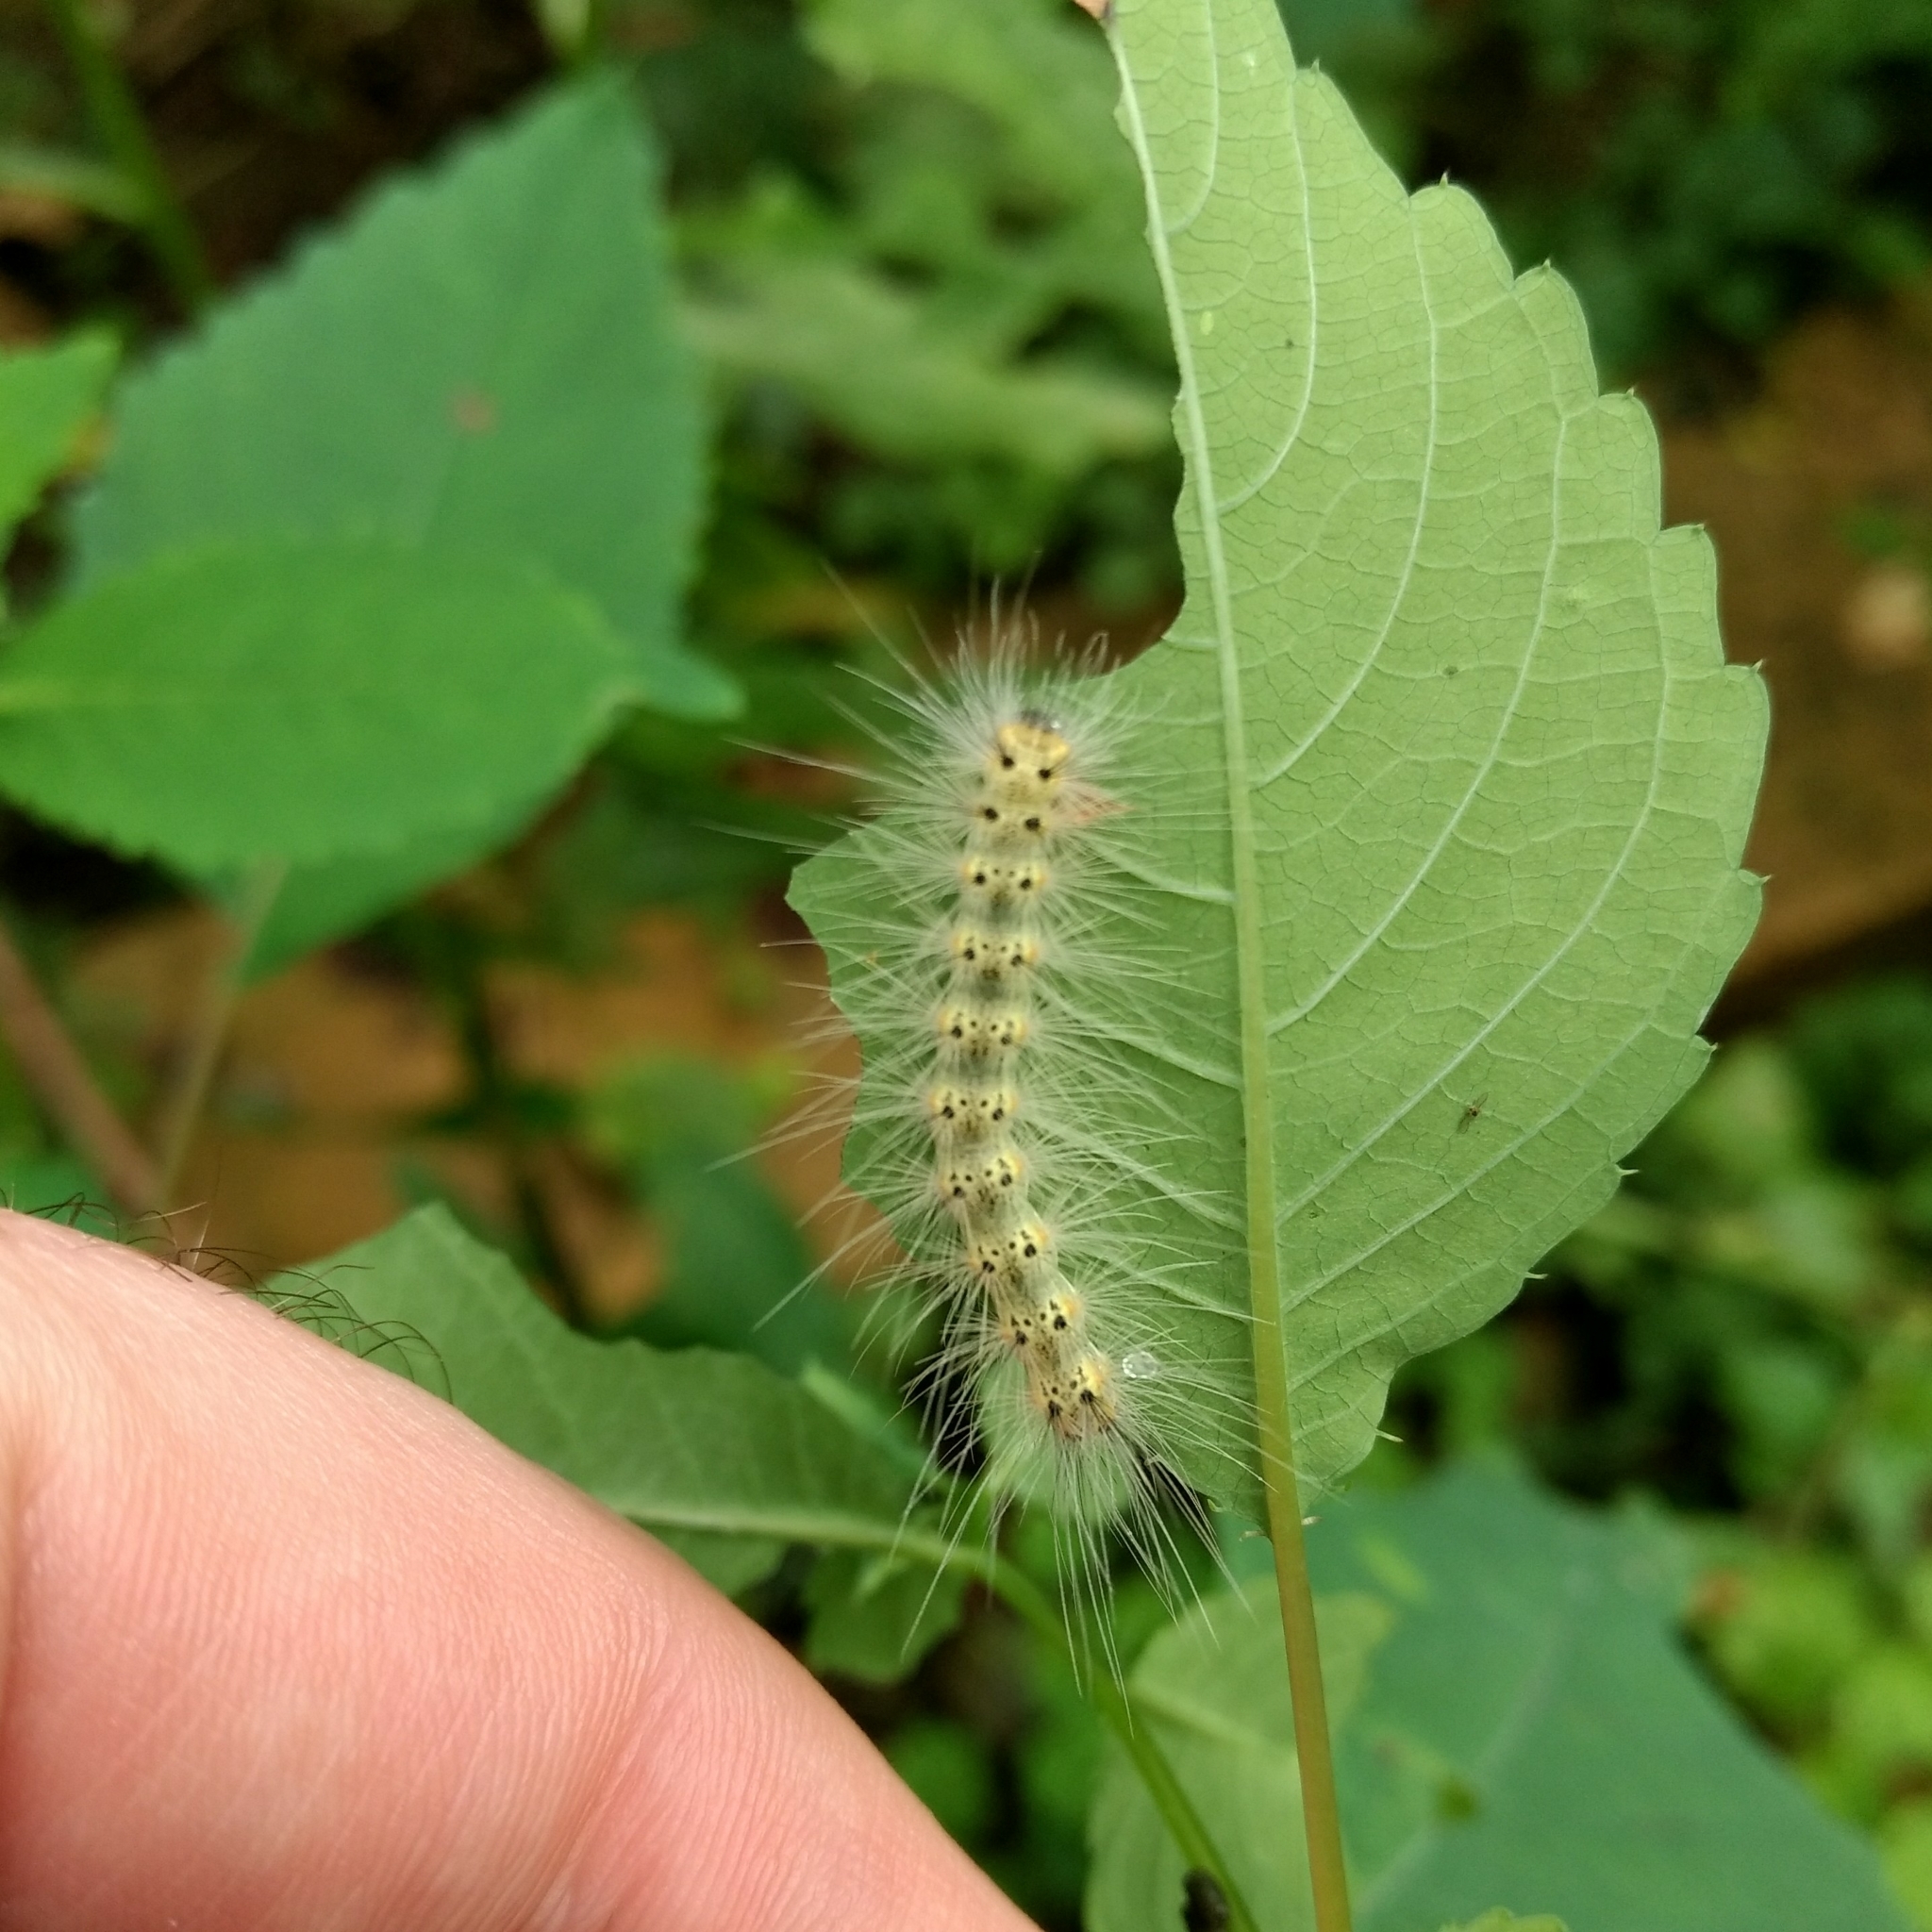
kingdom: Animalia
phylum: Arthropoda
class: Insecta
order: Lepidoptera
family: Erebidae
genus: Hyphantria
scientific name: Hyphantria cunea
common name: American white moth
